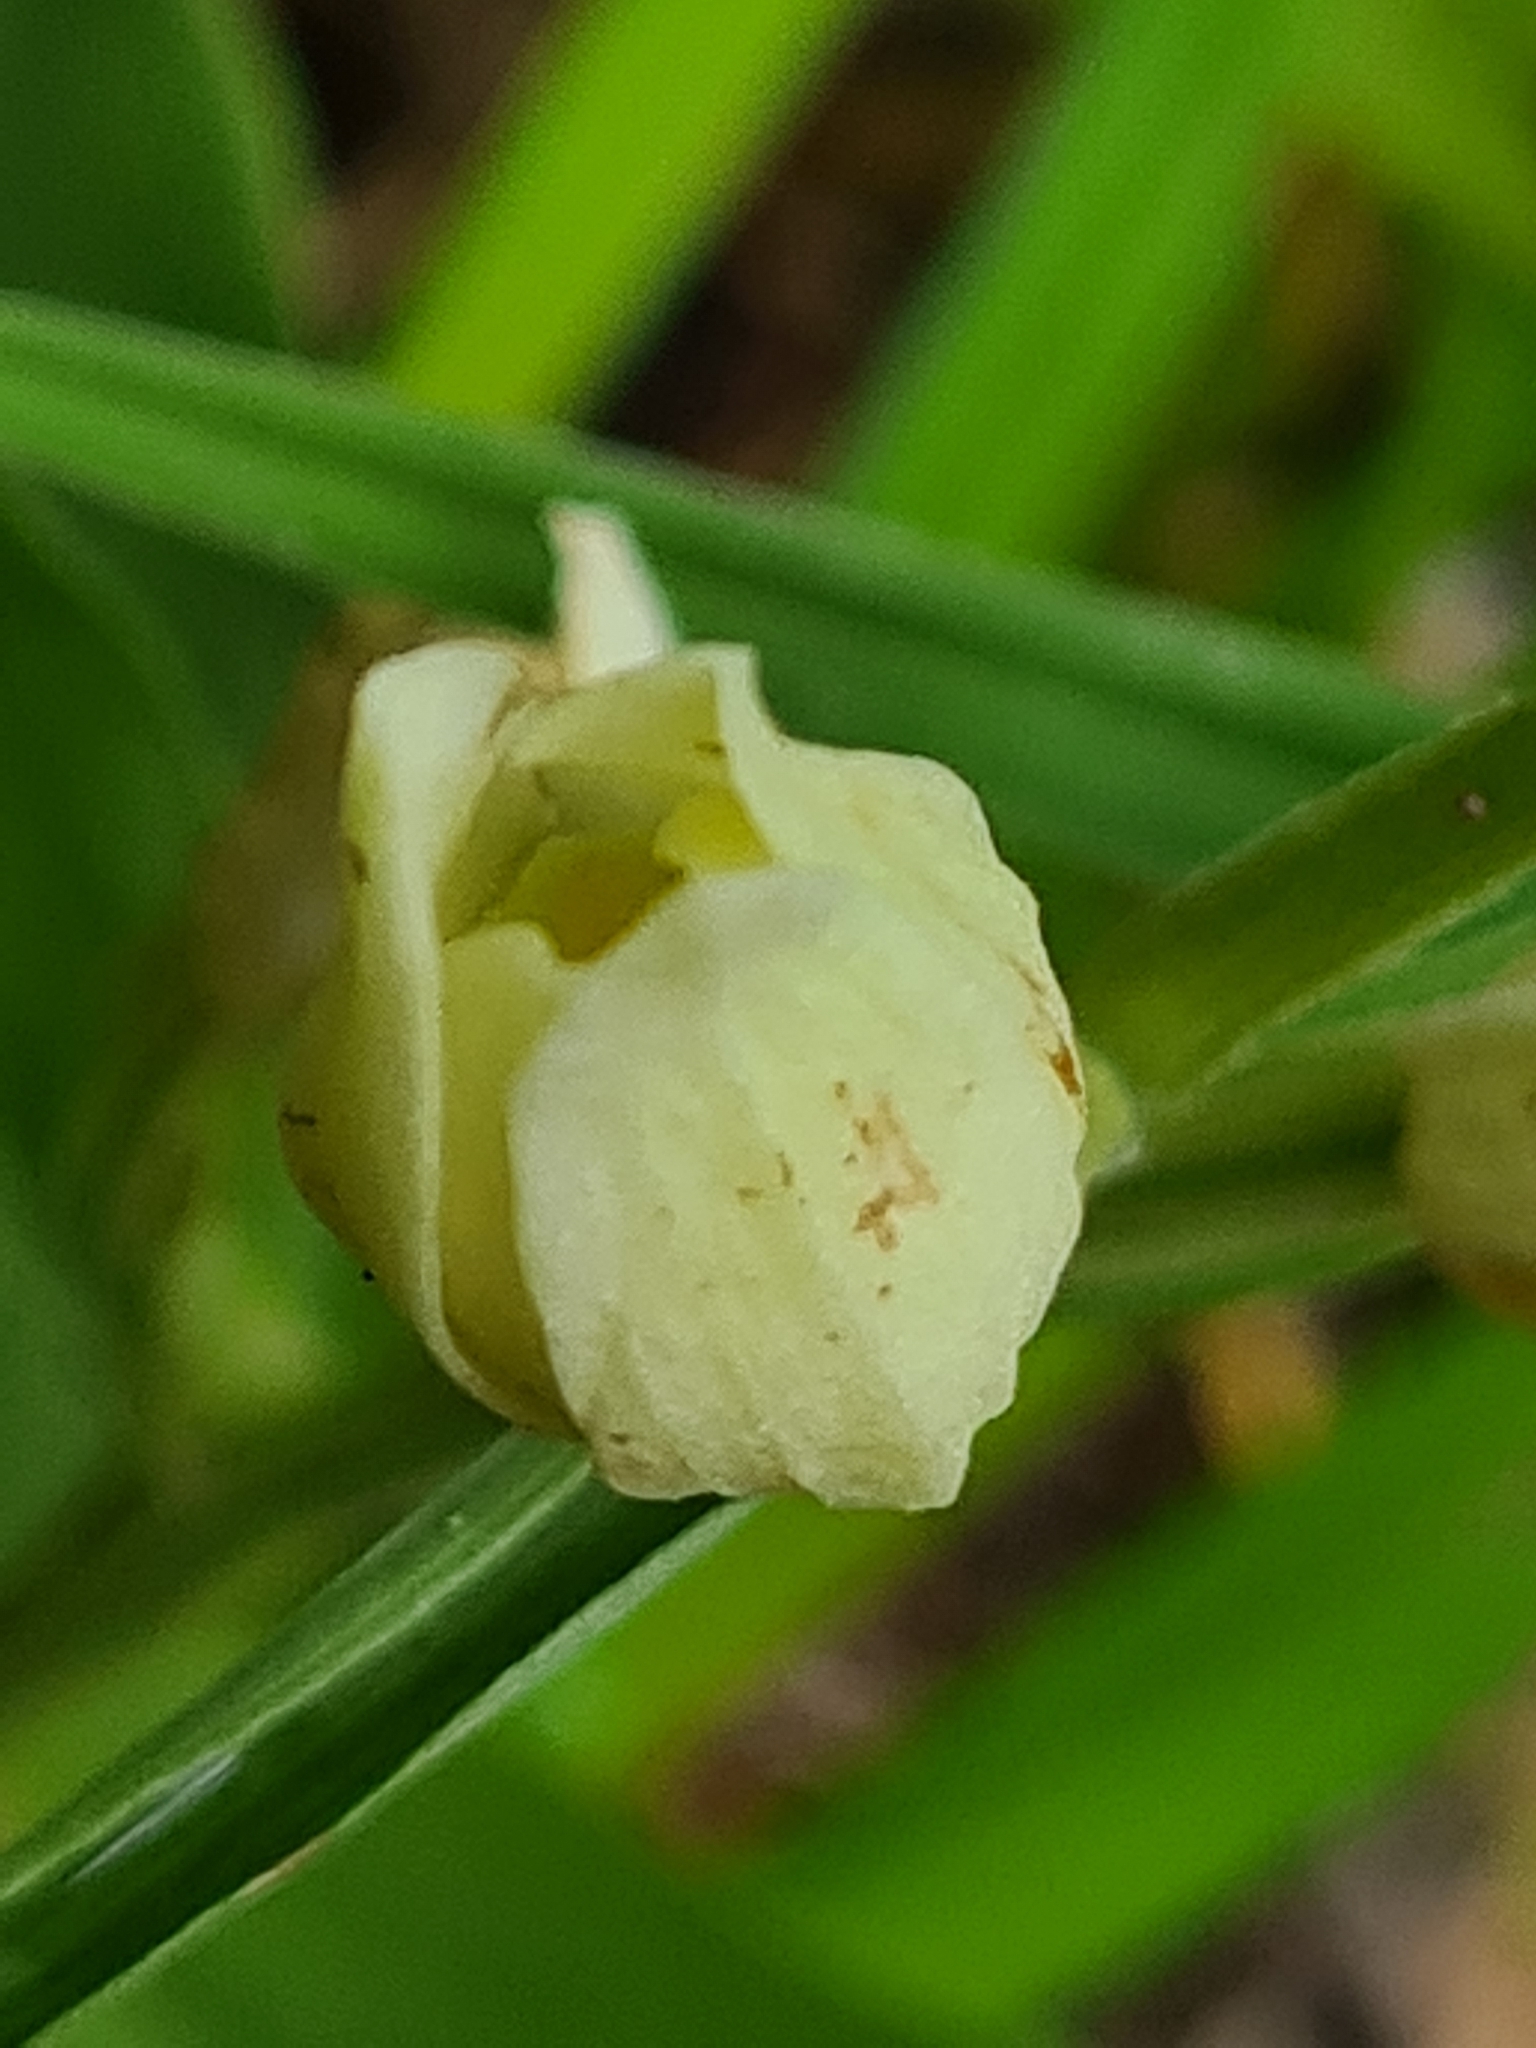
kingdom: Plantae
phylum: Tracheophyta
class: Liliopsida
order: Asparagales
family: Orchidaceae
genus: Cephalanthera
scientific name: Cephalanthera damasonium
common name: White helleborine
